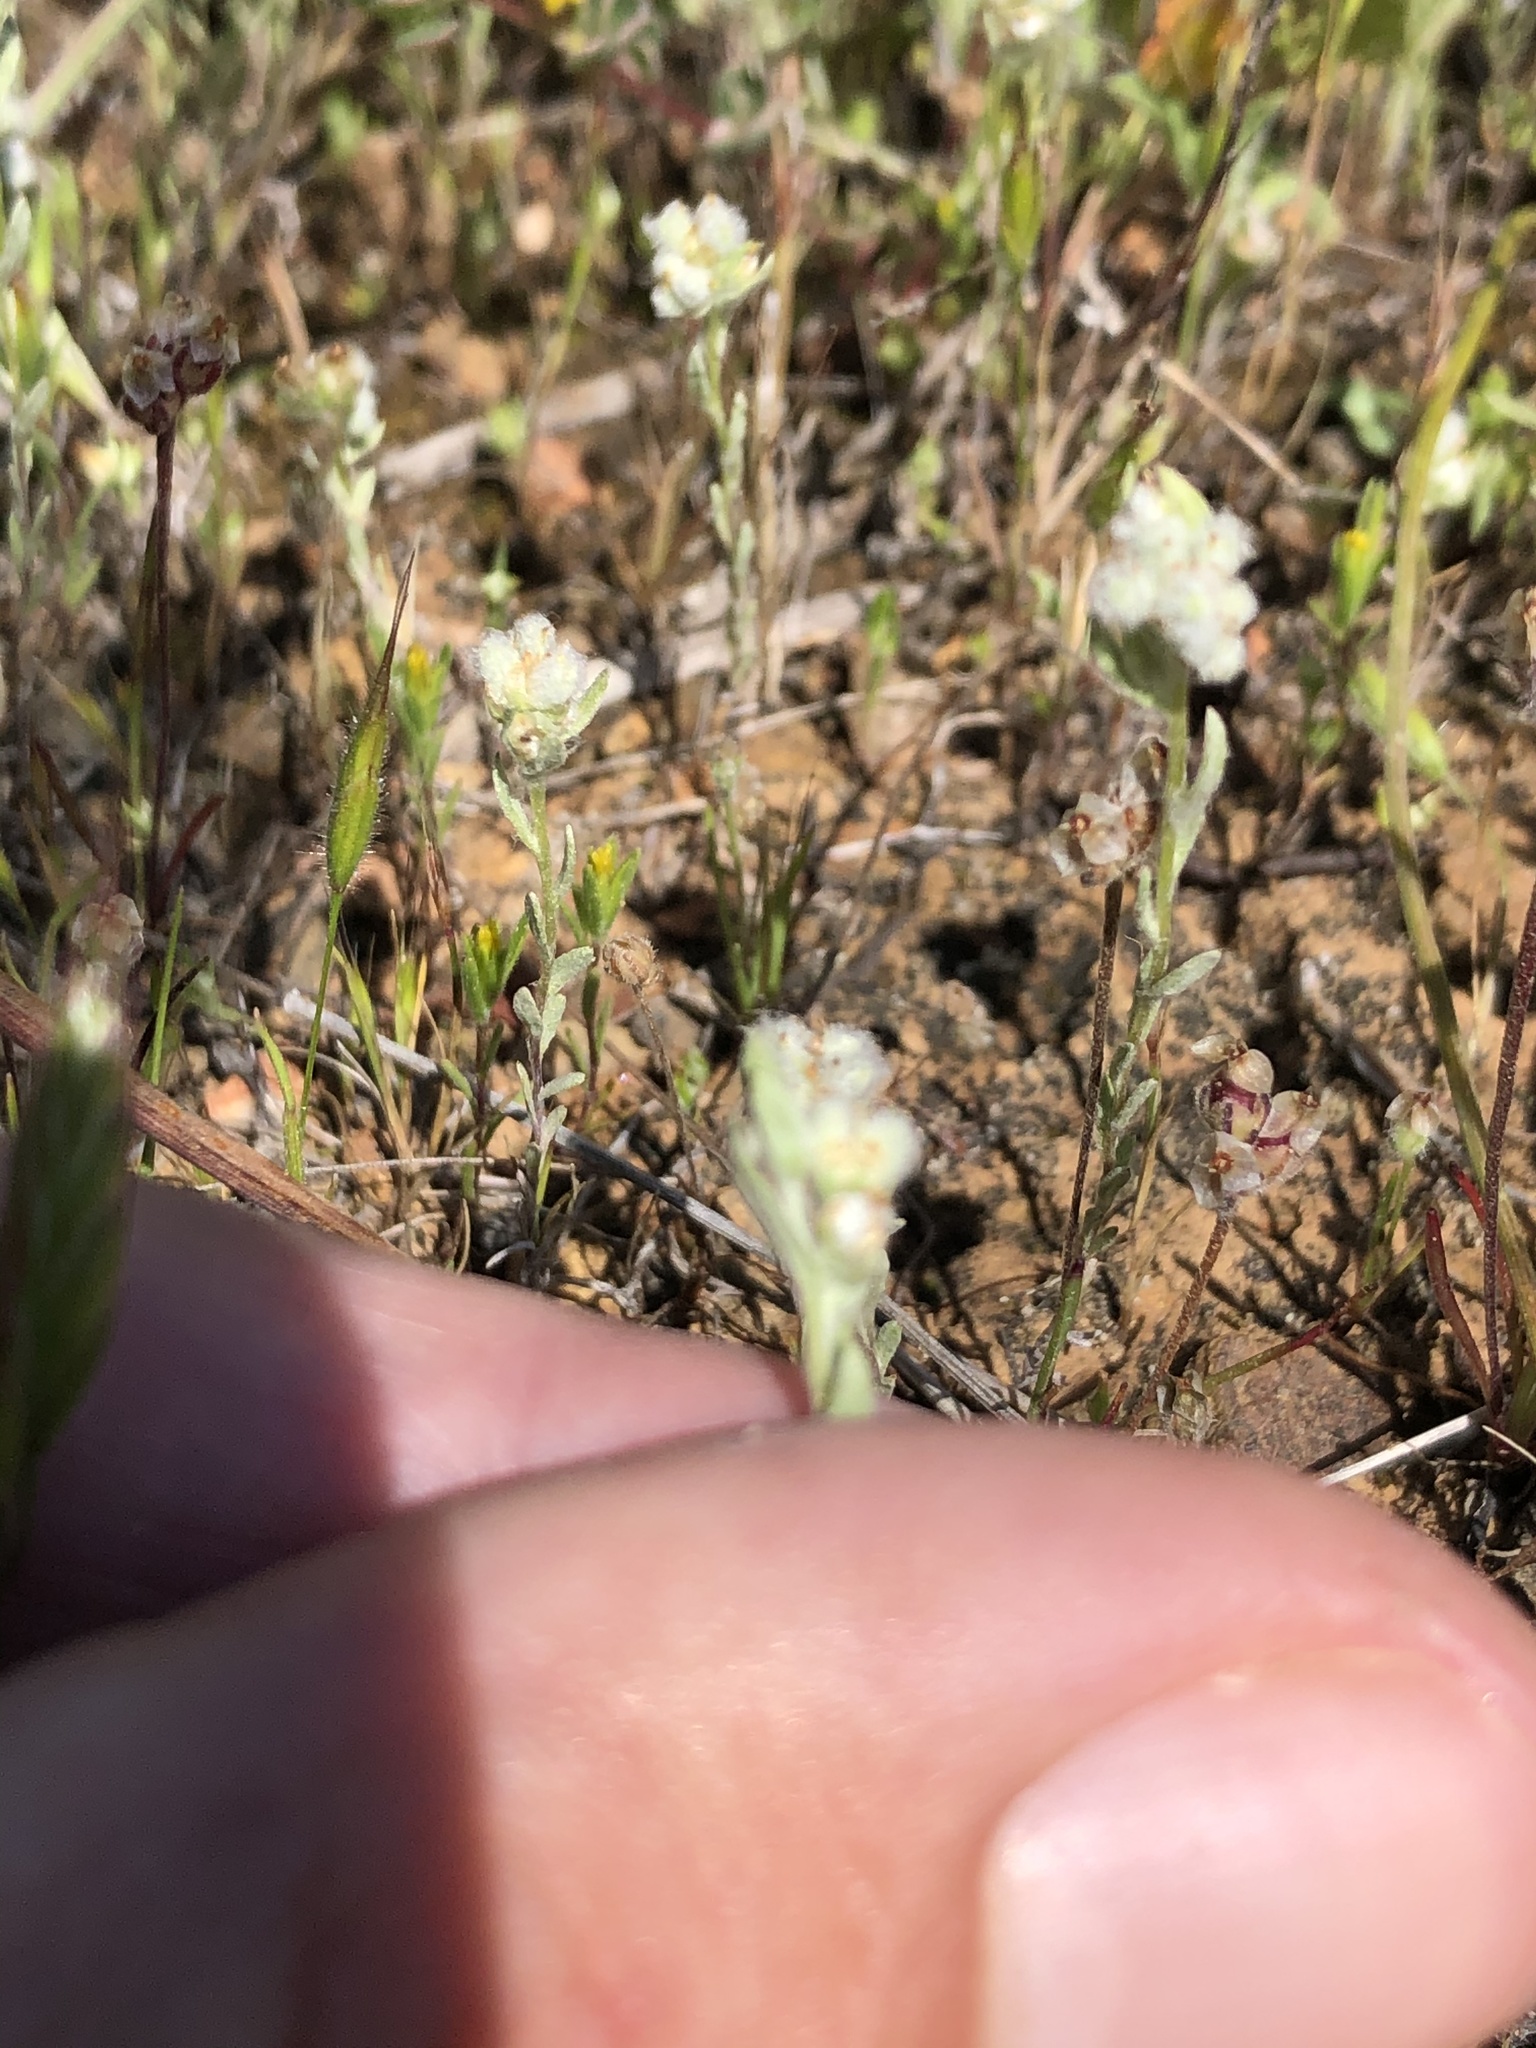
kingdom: Plantae
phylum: Tracheophyta
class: Magnoliopsida
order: Asterales
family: Asteraceae
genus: Bombycilaena
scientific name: Bombycilaena californica
